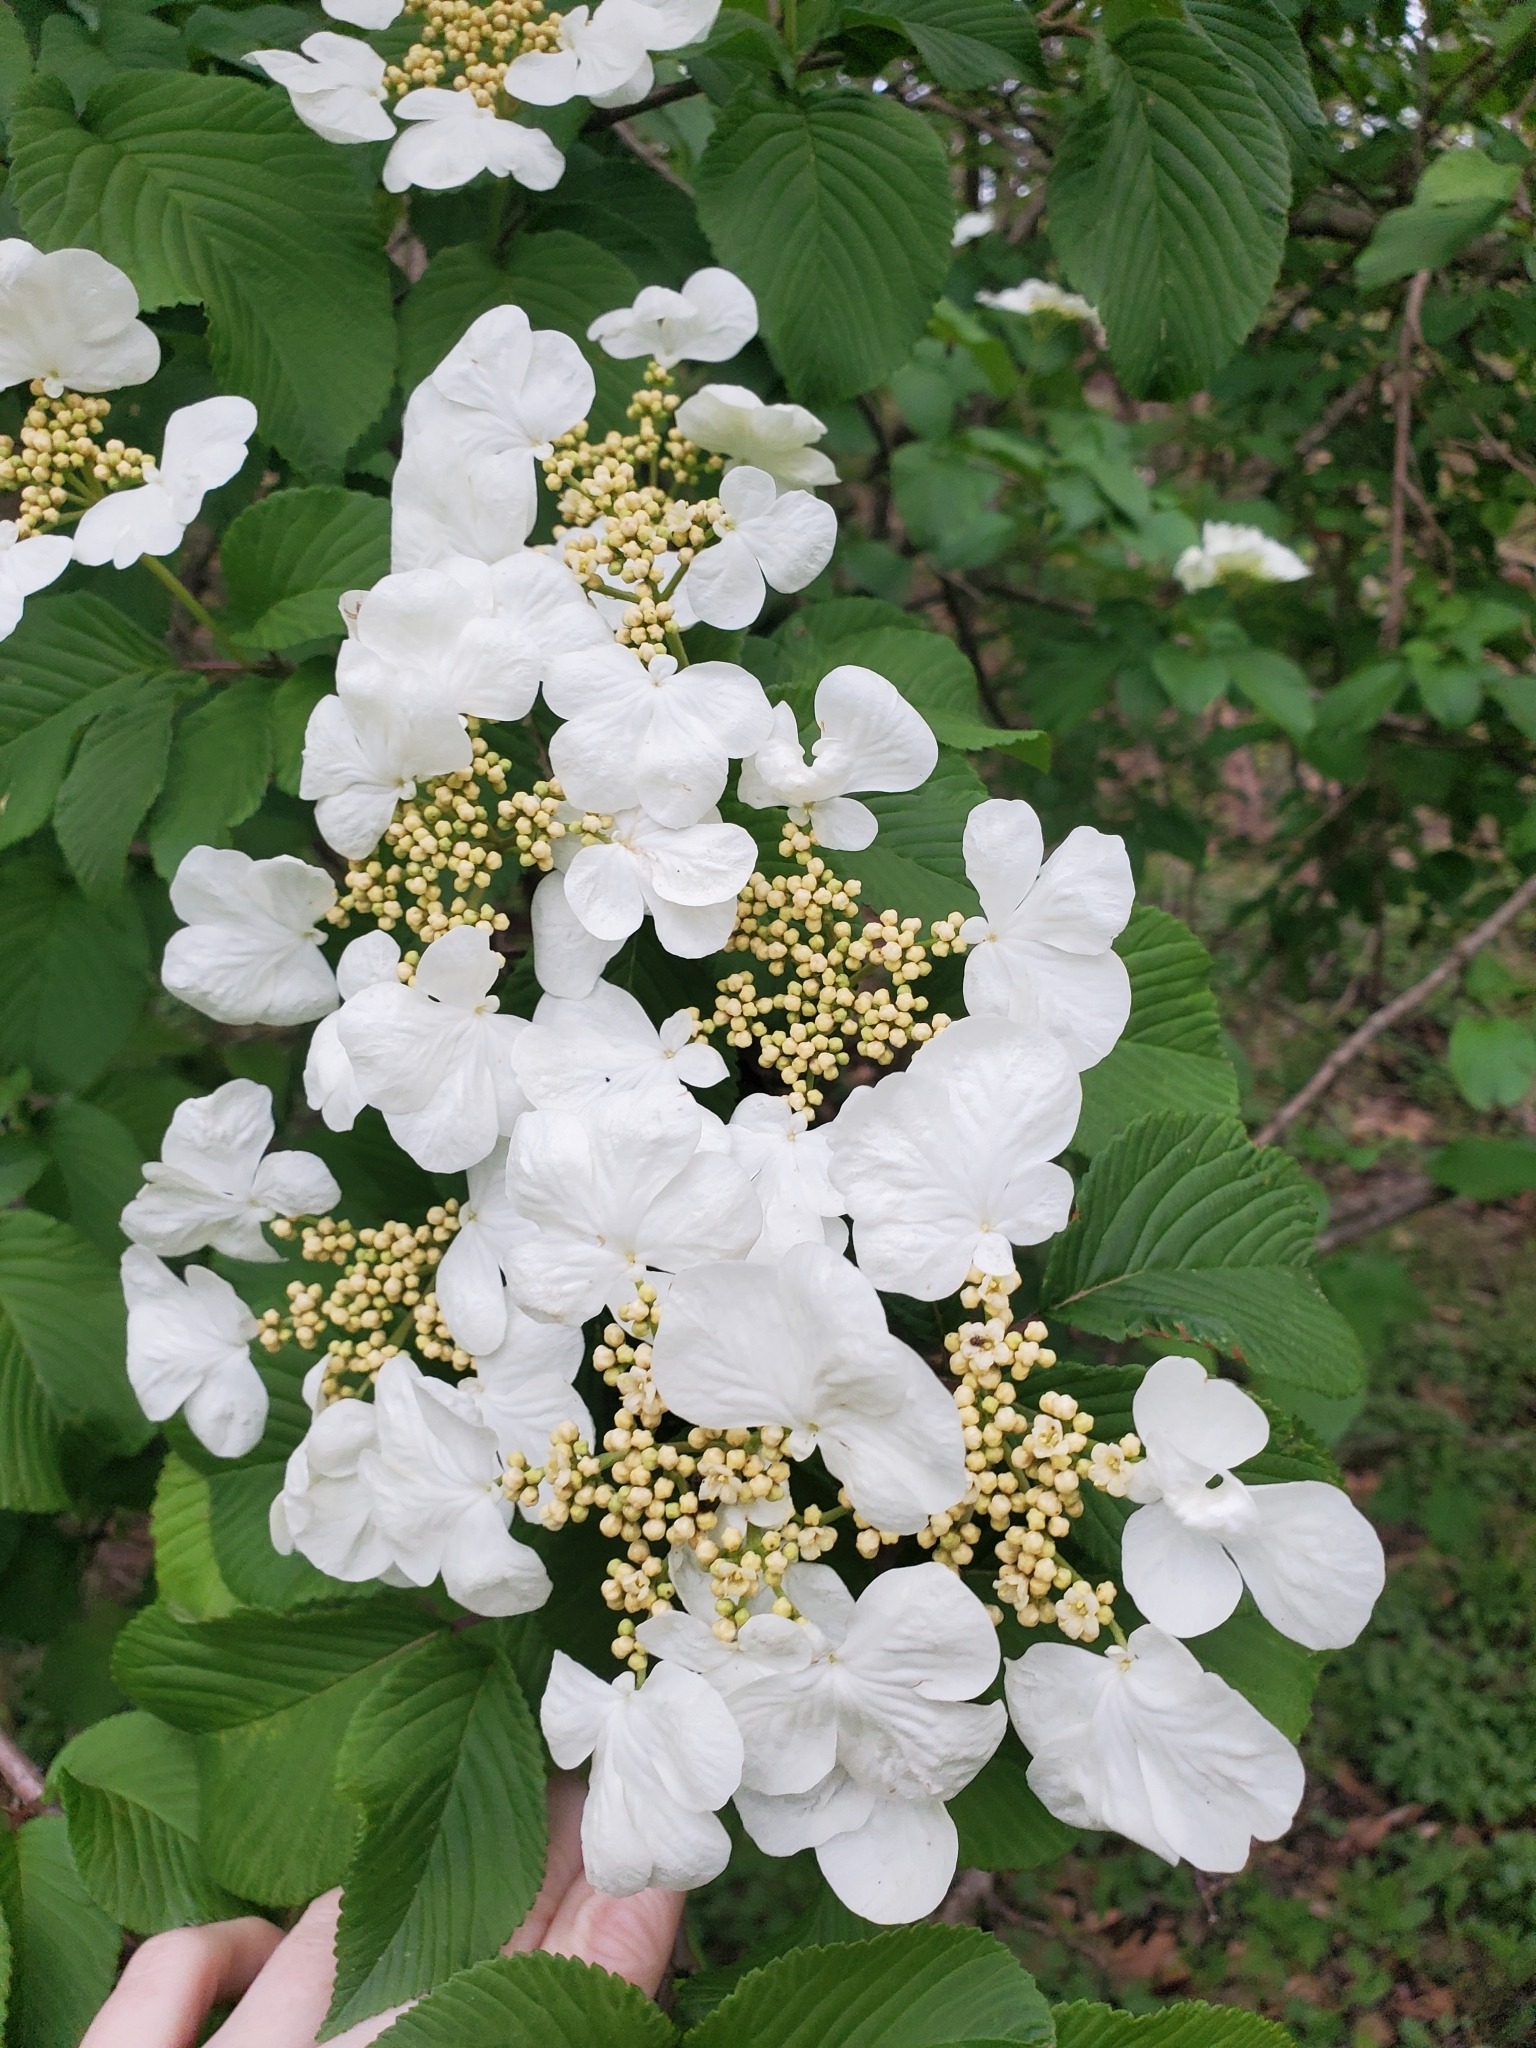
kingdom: Plantae
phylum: Tracheophyta
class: Magnoliopsida
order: Dipsacales
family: Viburnaceae
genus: Viburnum
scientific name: Viburnum plicatum
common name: Japanese snowball
